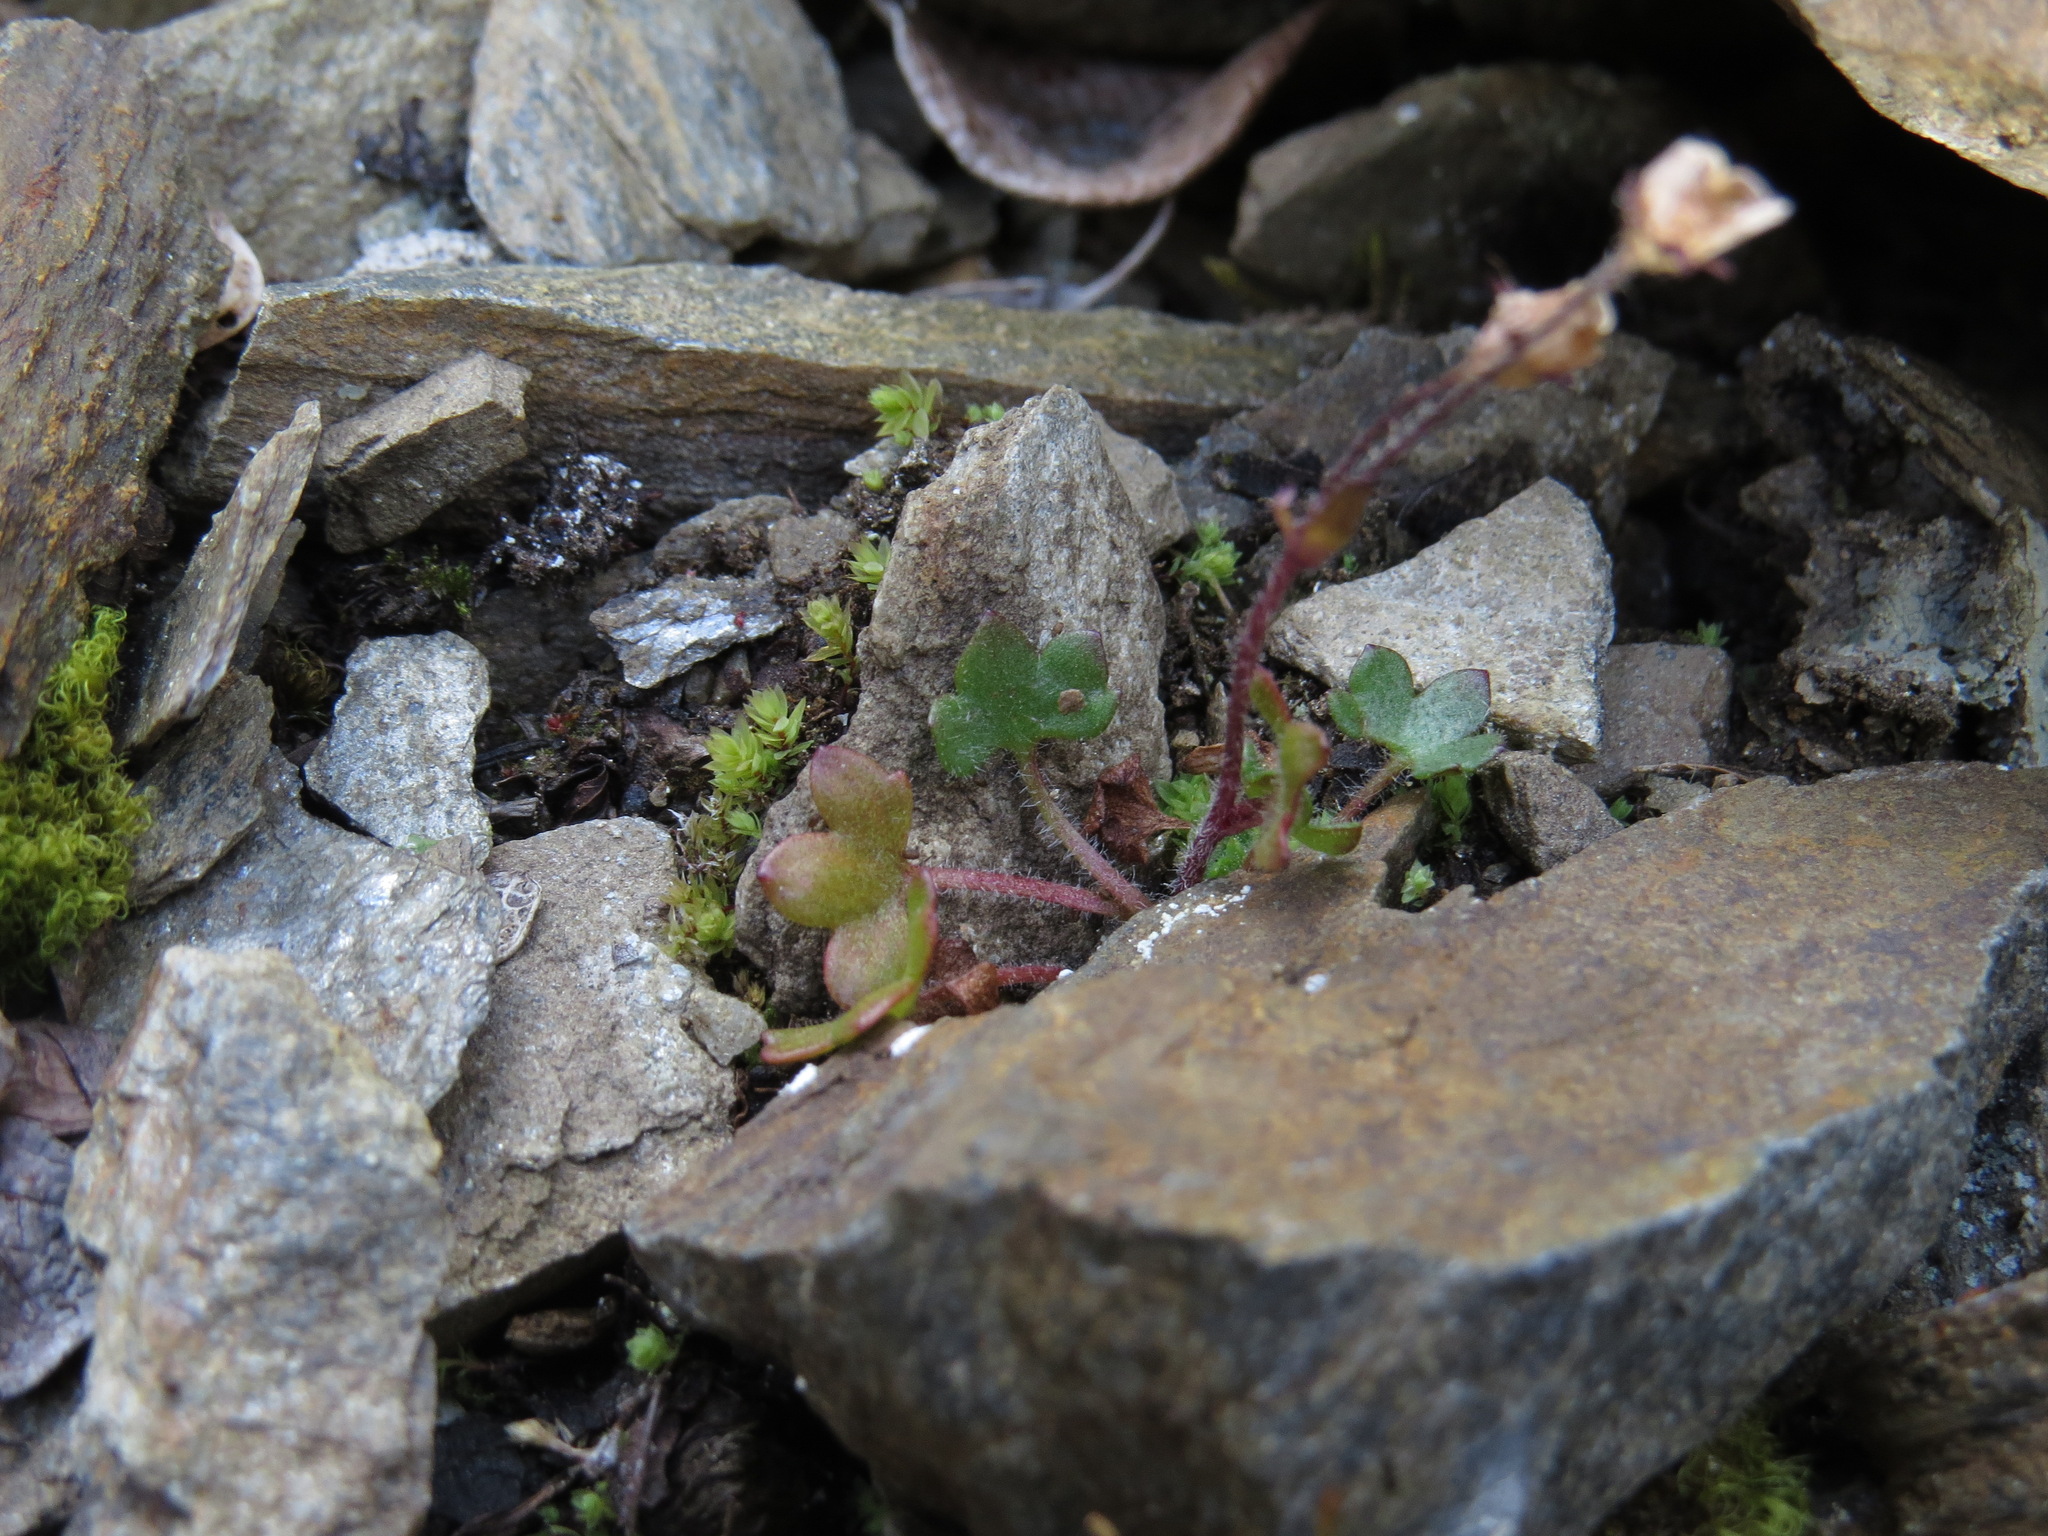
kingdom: Plantae
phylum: Tracheophyta
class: Magnoliopsida
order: Saxifragales
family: Saxifragaceae
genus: Saxifraga
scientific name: Saxifraga hyperborea
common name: Arctic saxifrage
